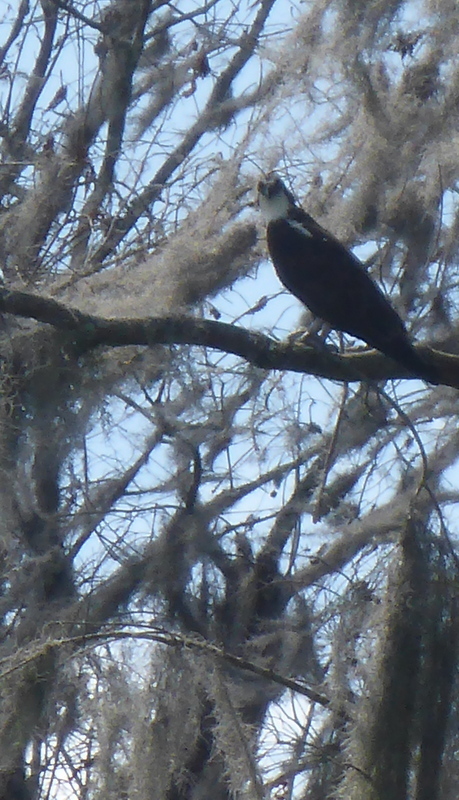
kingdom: Animalia
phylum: Chordata
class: Aves
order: Accipitriformes
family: Pandionidae
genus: Pandion
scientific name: Pandion haliaetus
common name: Osprey
